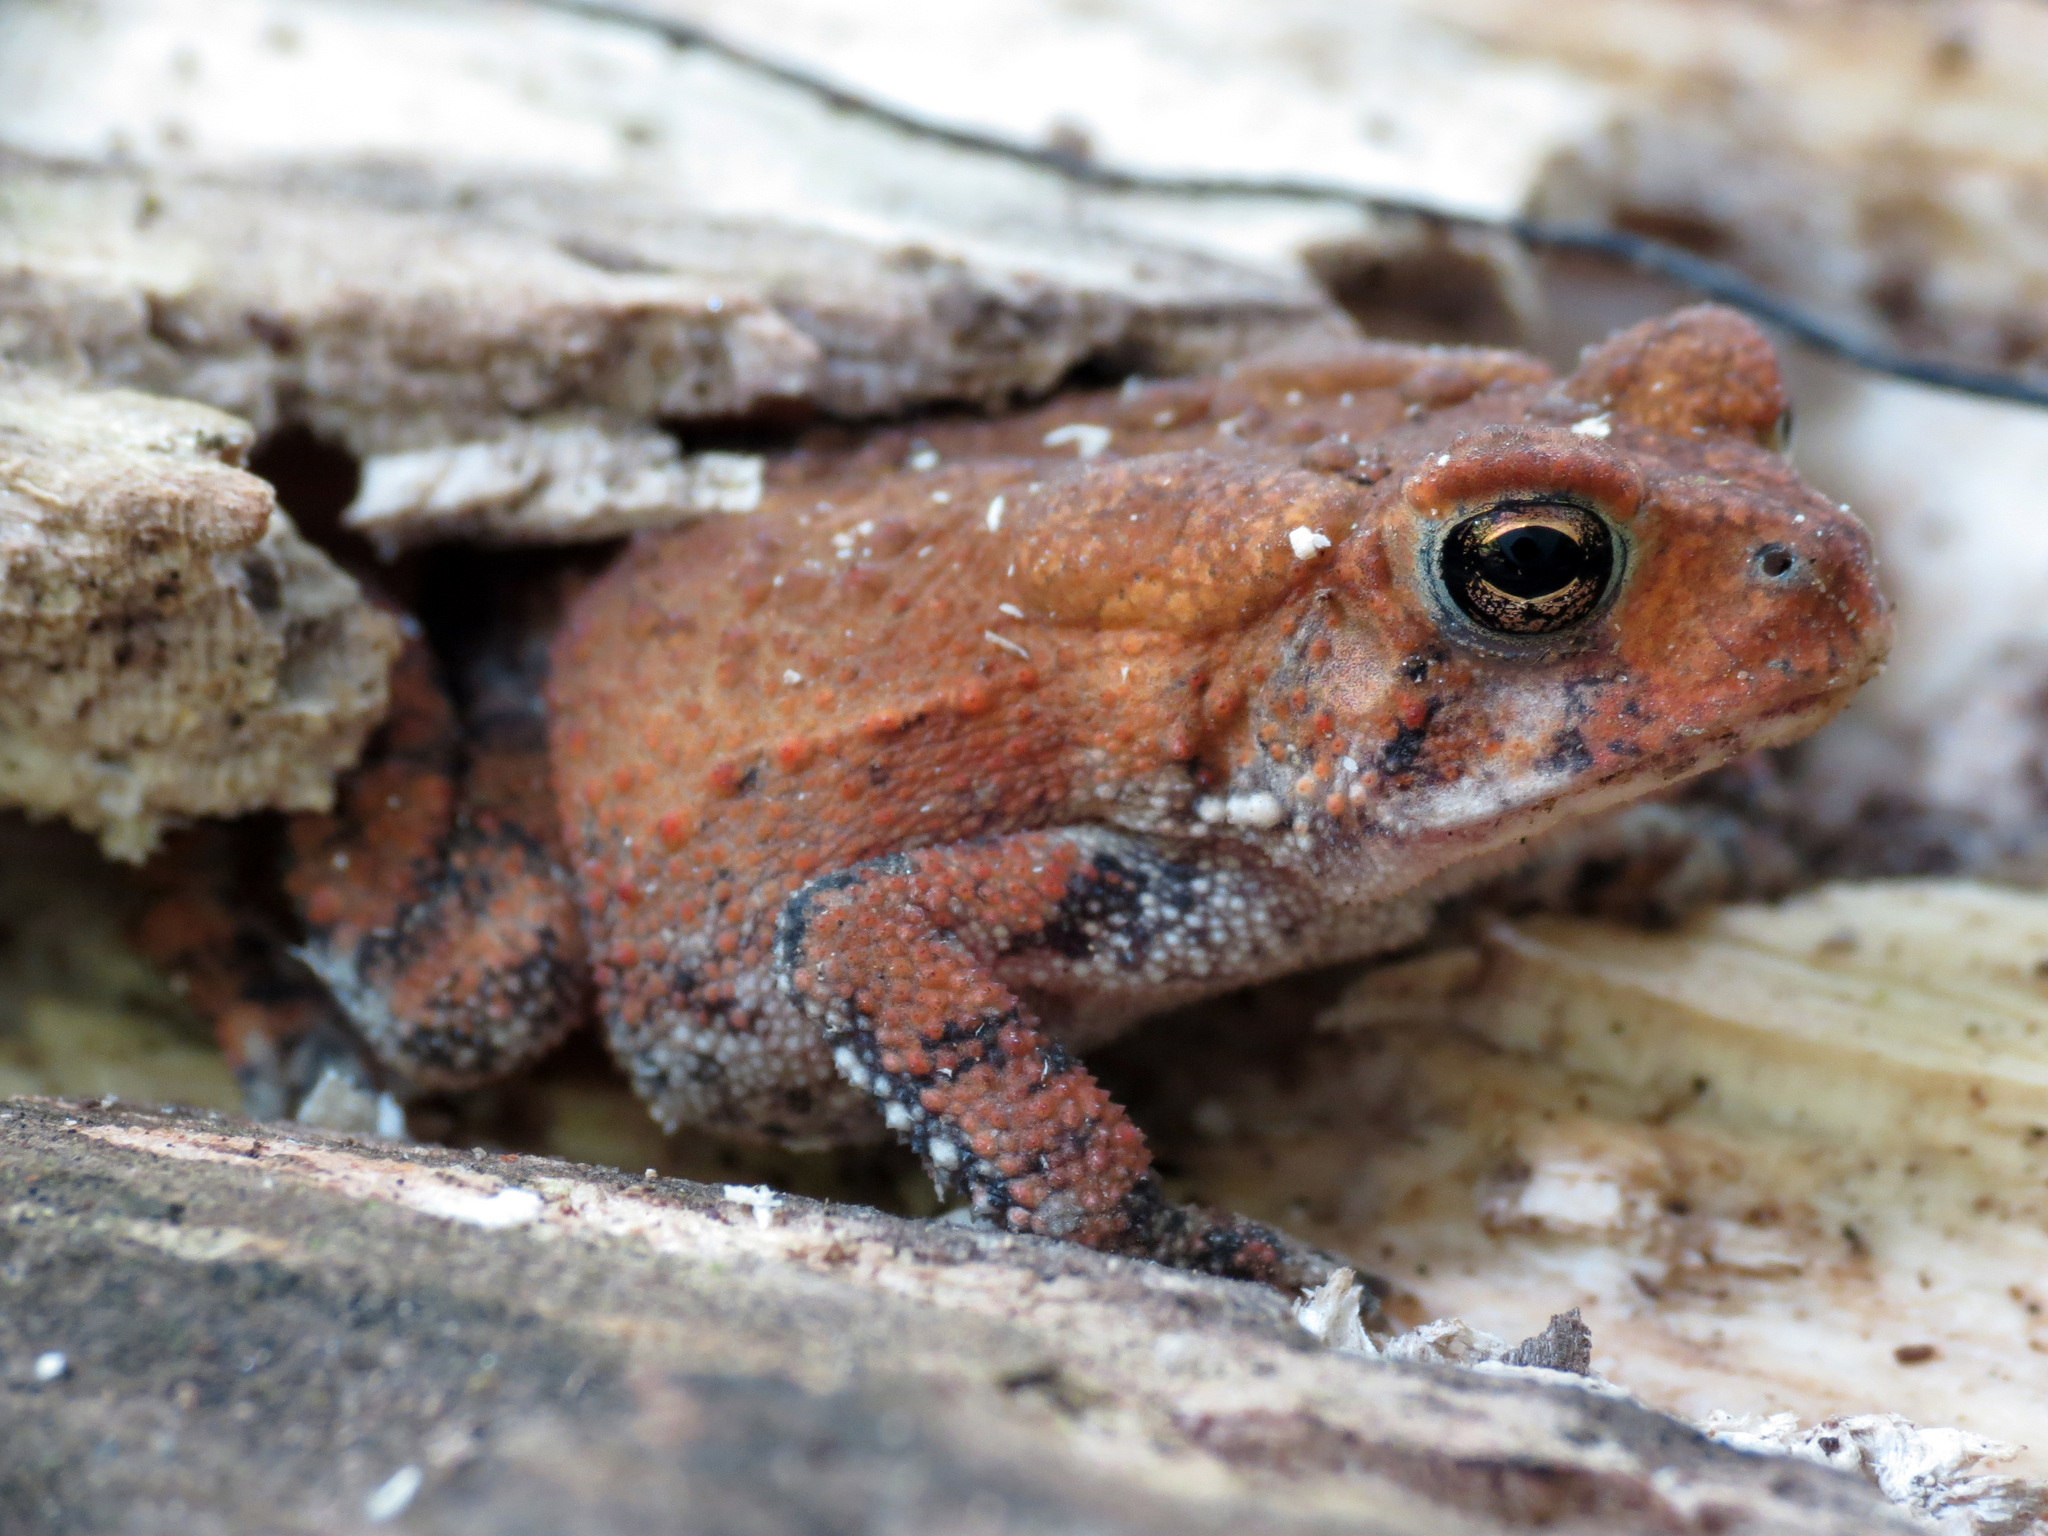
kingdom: Animalia
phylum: Chordata
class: Amphibia
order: Anura
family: Bufonidae
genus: Anaxyrus
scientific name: Anaxyrus americanus
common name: American toad
